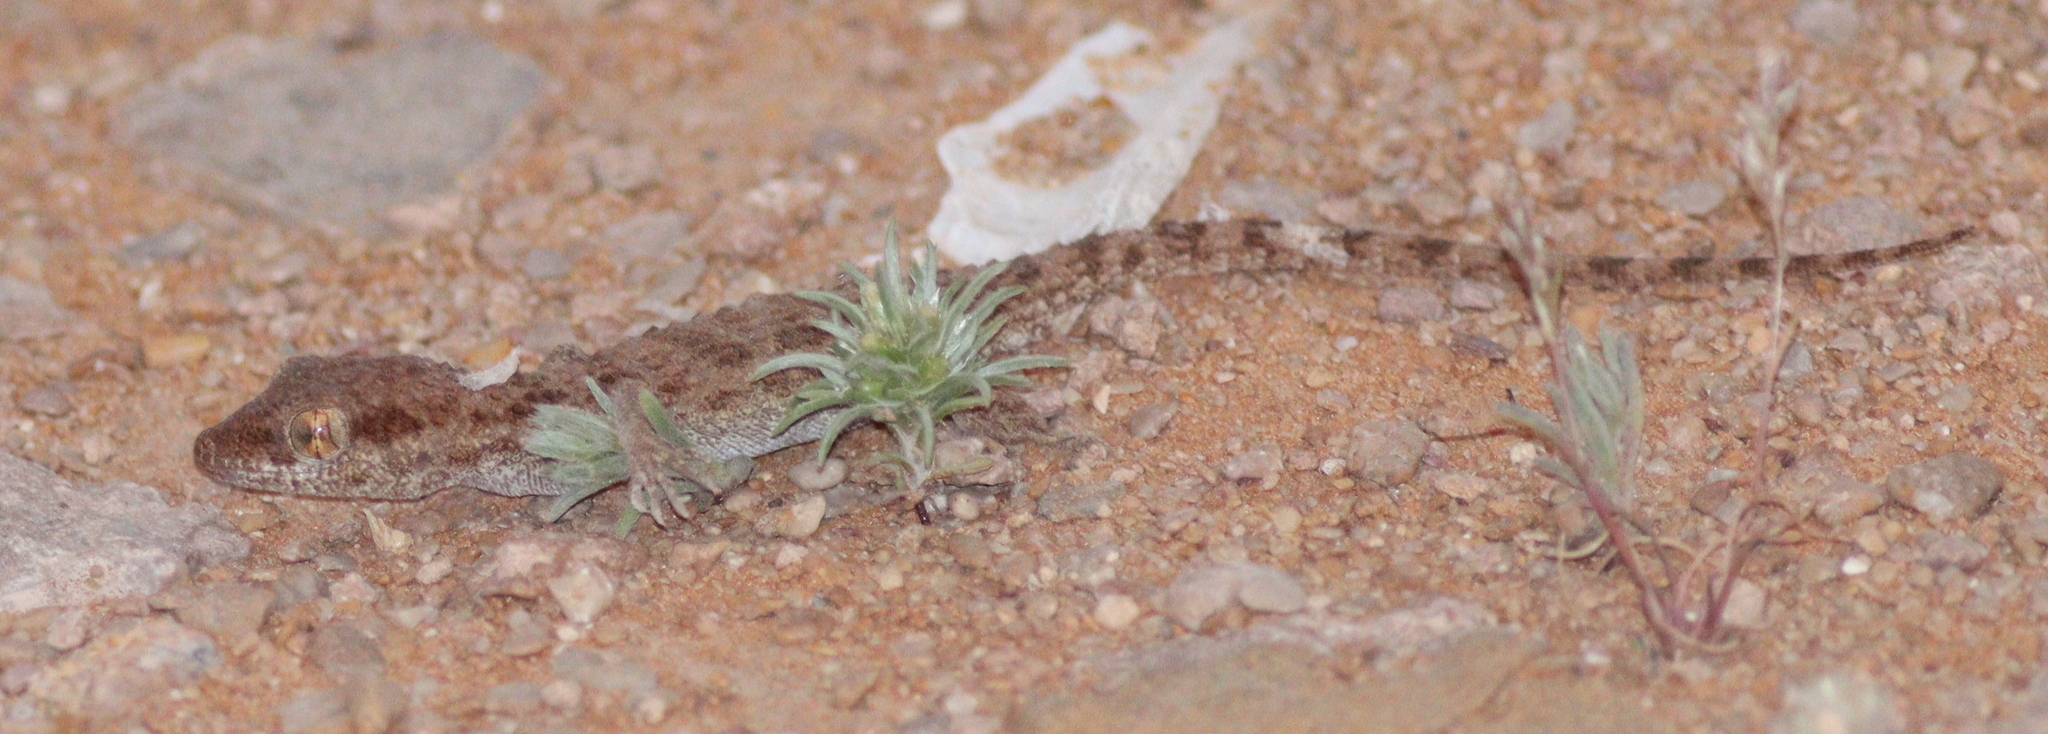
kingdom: Animalia
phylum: Chordata
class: Squamata
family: Gekkonidae
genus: Bunopus
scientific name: Bunopus tuberculatus
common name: Southern tuberculated gecko
